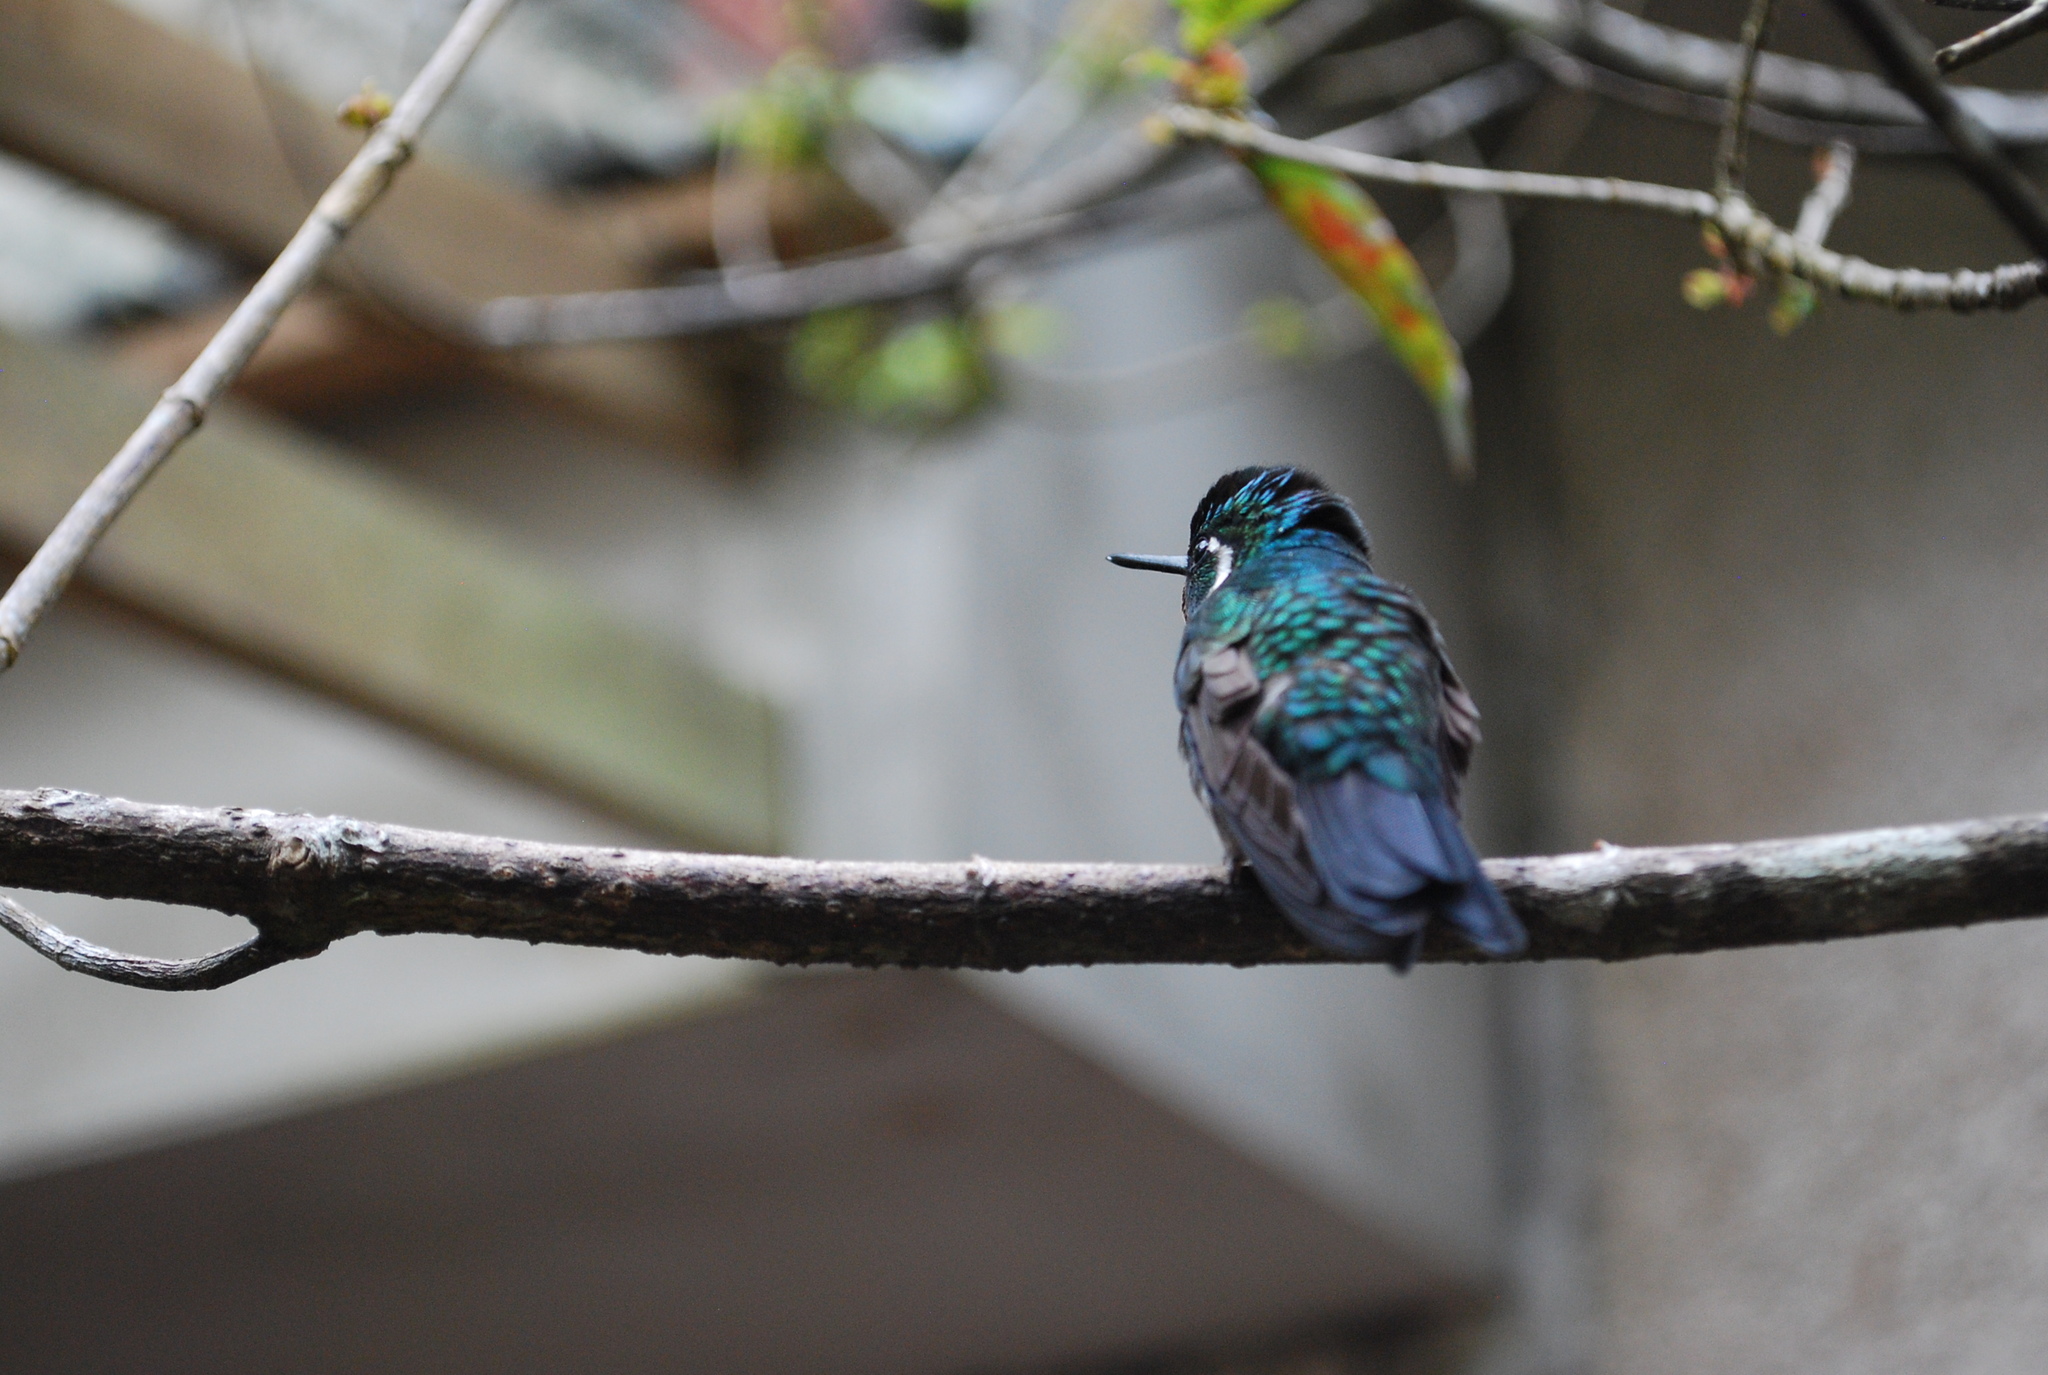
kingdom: Animalia
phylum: Chordata
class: Aves
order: Apodiformes
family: Trochilidae
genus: Lampornis
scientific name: Lampornis calolaemus
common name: Purple-throated mountain-gem
